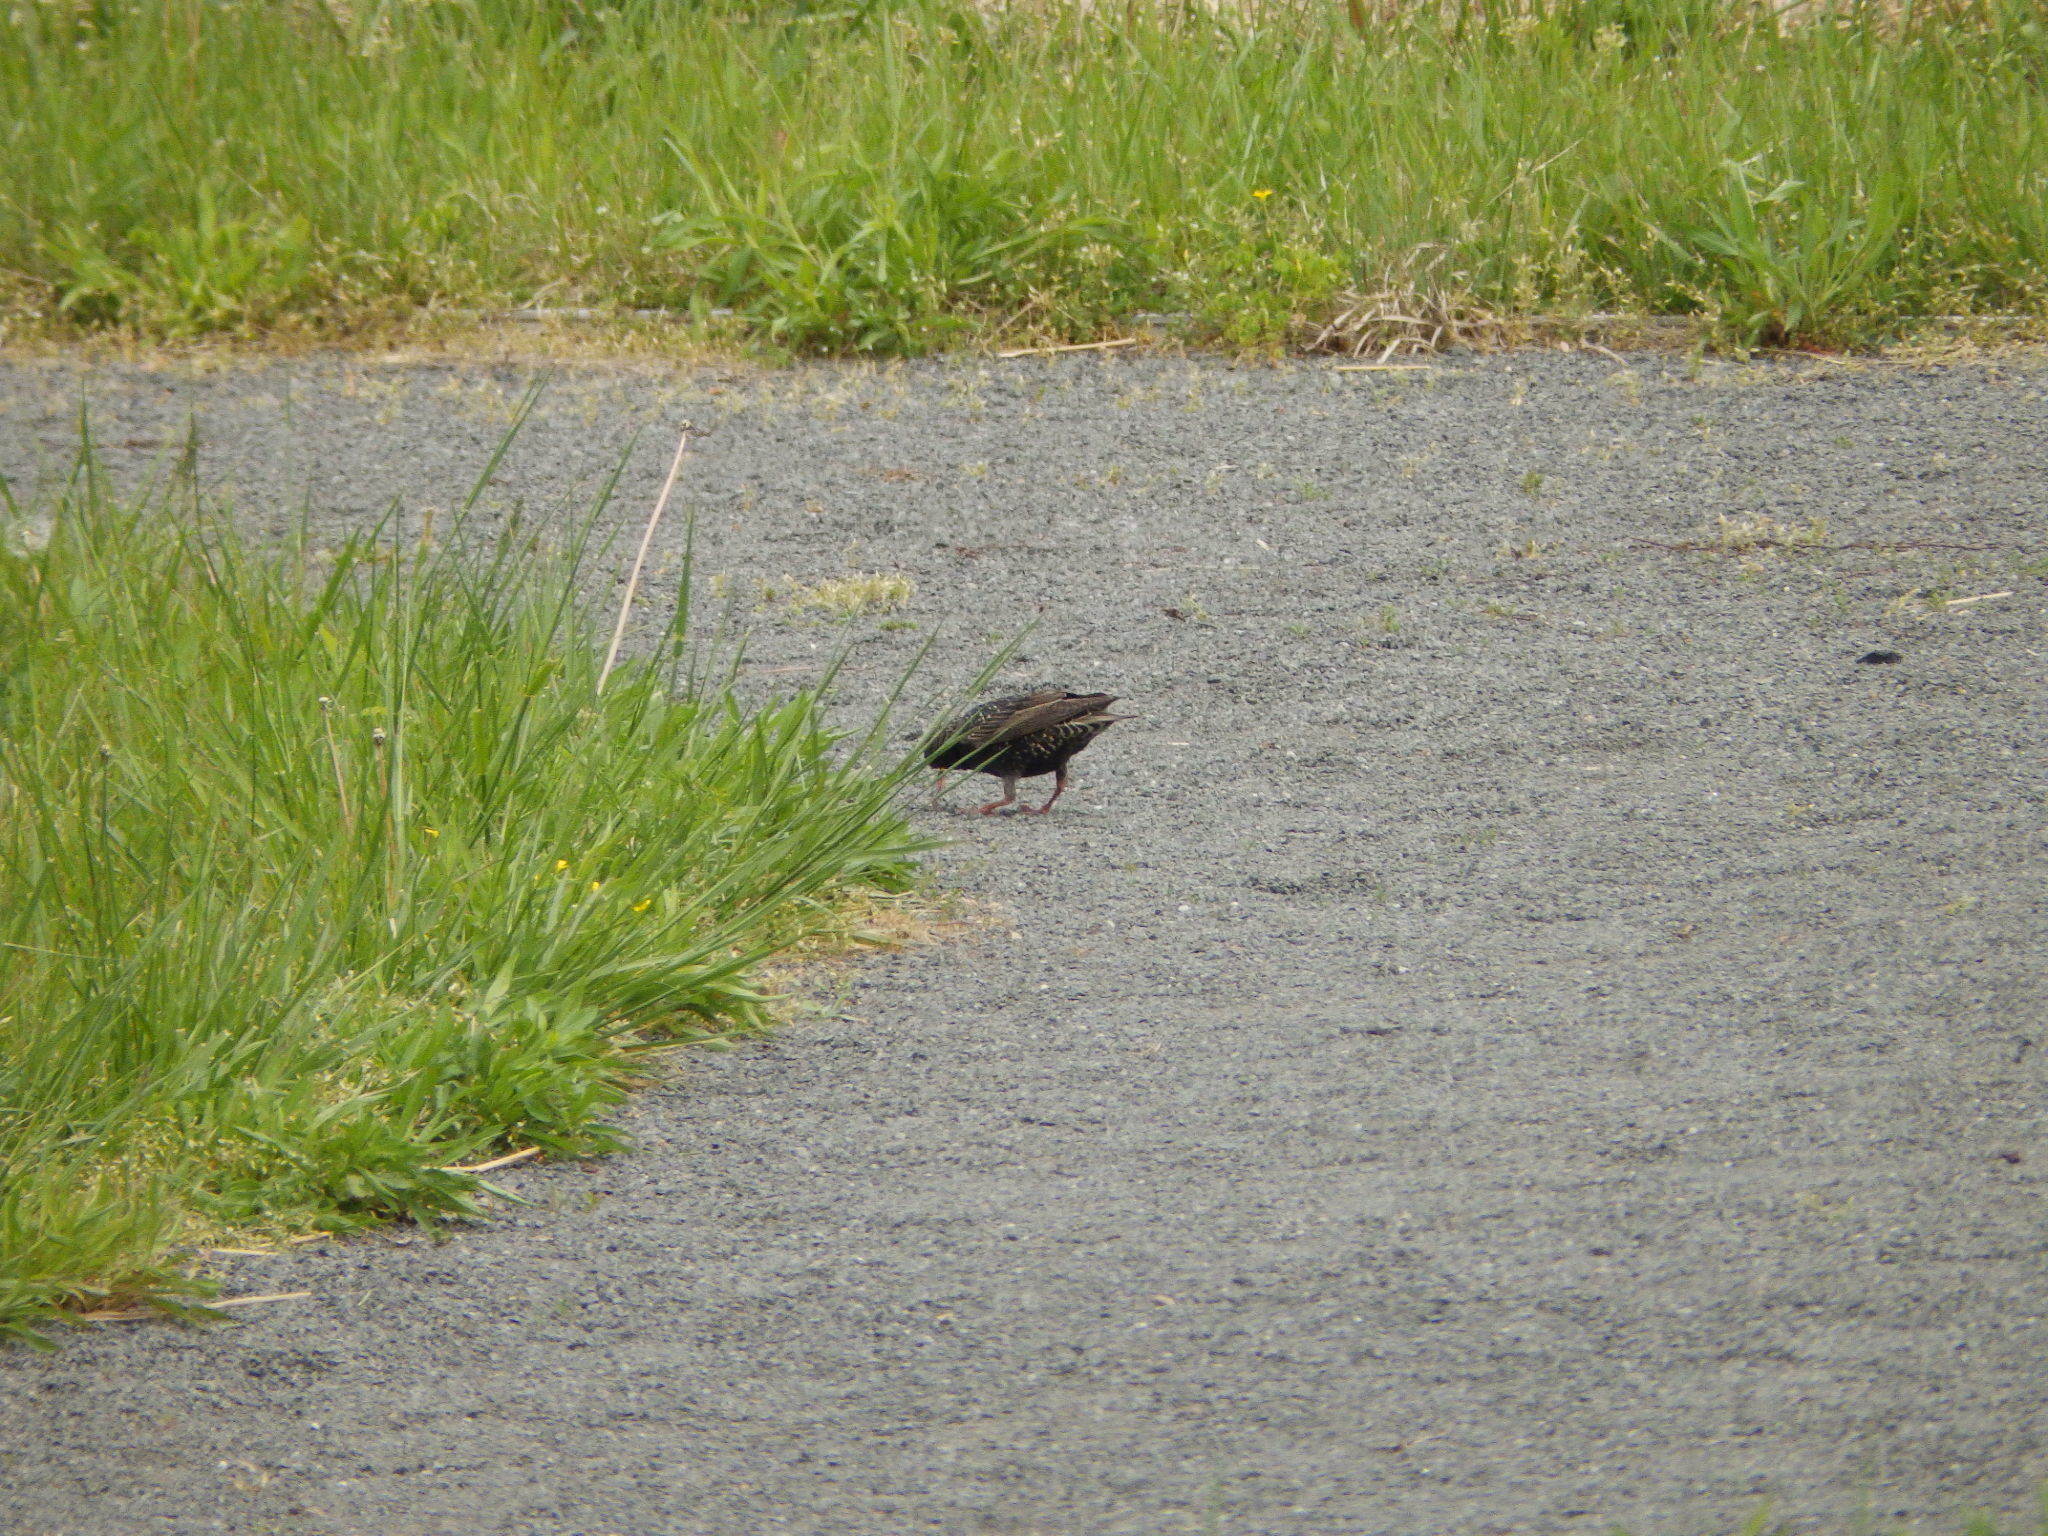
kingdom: Animalia
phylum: Chordata
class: Aves
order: Passeriformes
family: Sturnidae
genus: Sturnus
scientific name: Sturnus vulgaris
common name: Common starling
